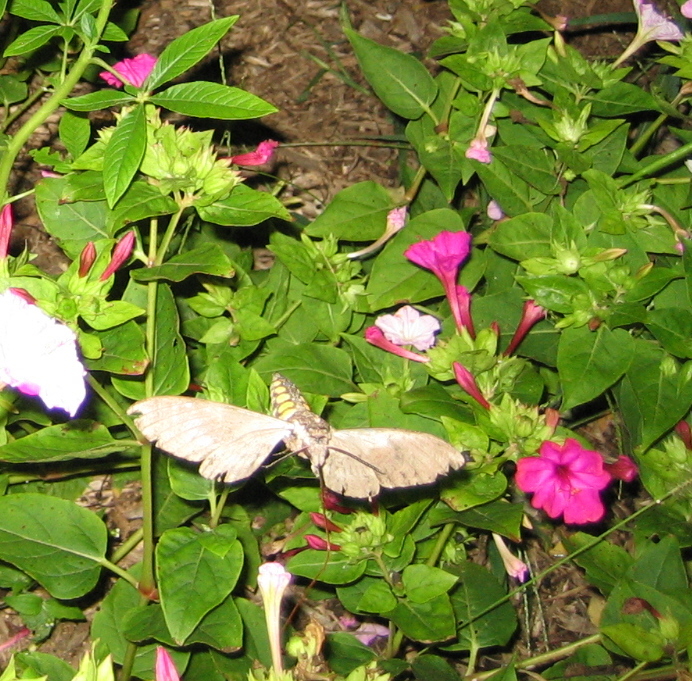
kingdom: Animalia
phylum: Arthropoda
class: Insecta
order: Lepidoptera
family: Sphingidae
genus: Manduca
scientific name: Manduca sexta
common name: Carolina sphinx
